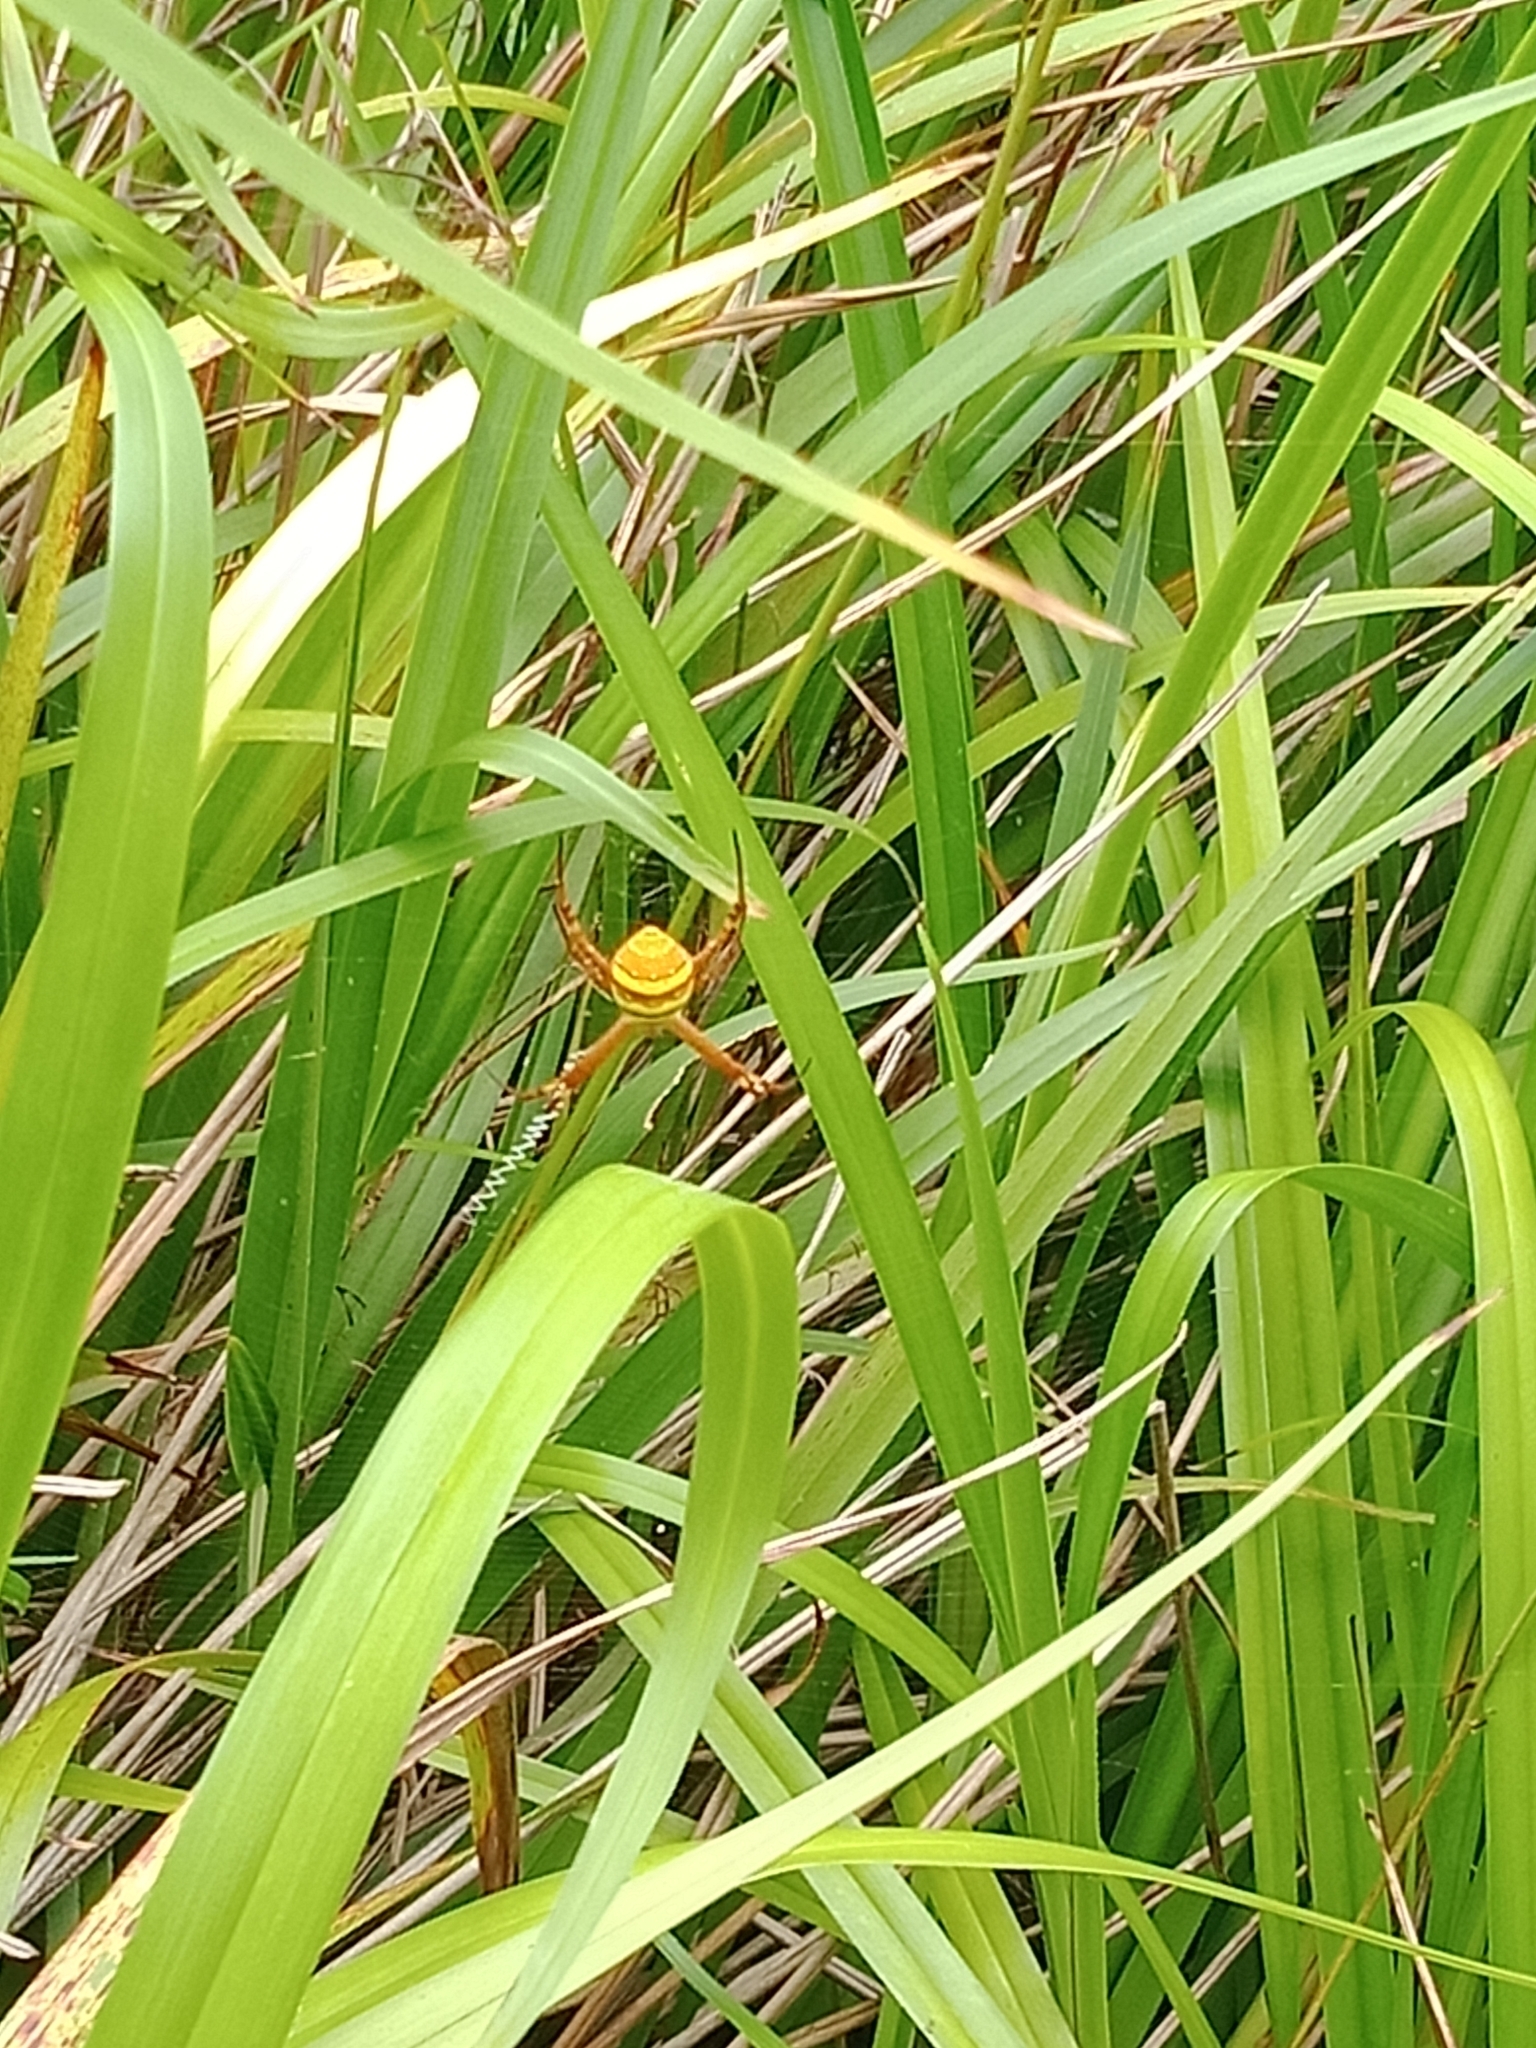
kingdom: Animalia
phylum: Arthropoda
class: Arachnida
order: Araneae
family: Araneidae
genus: Argiope
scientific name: Argiope keyserlingi
